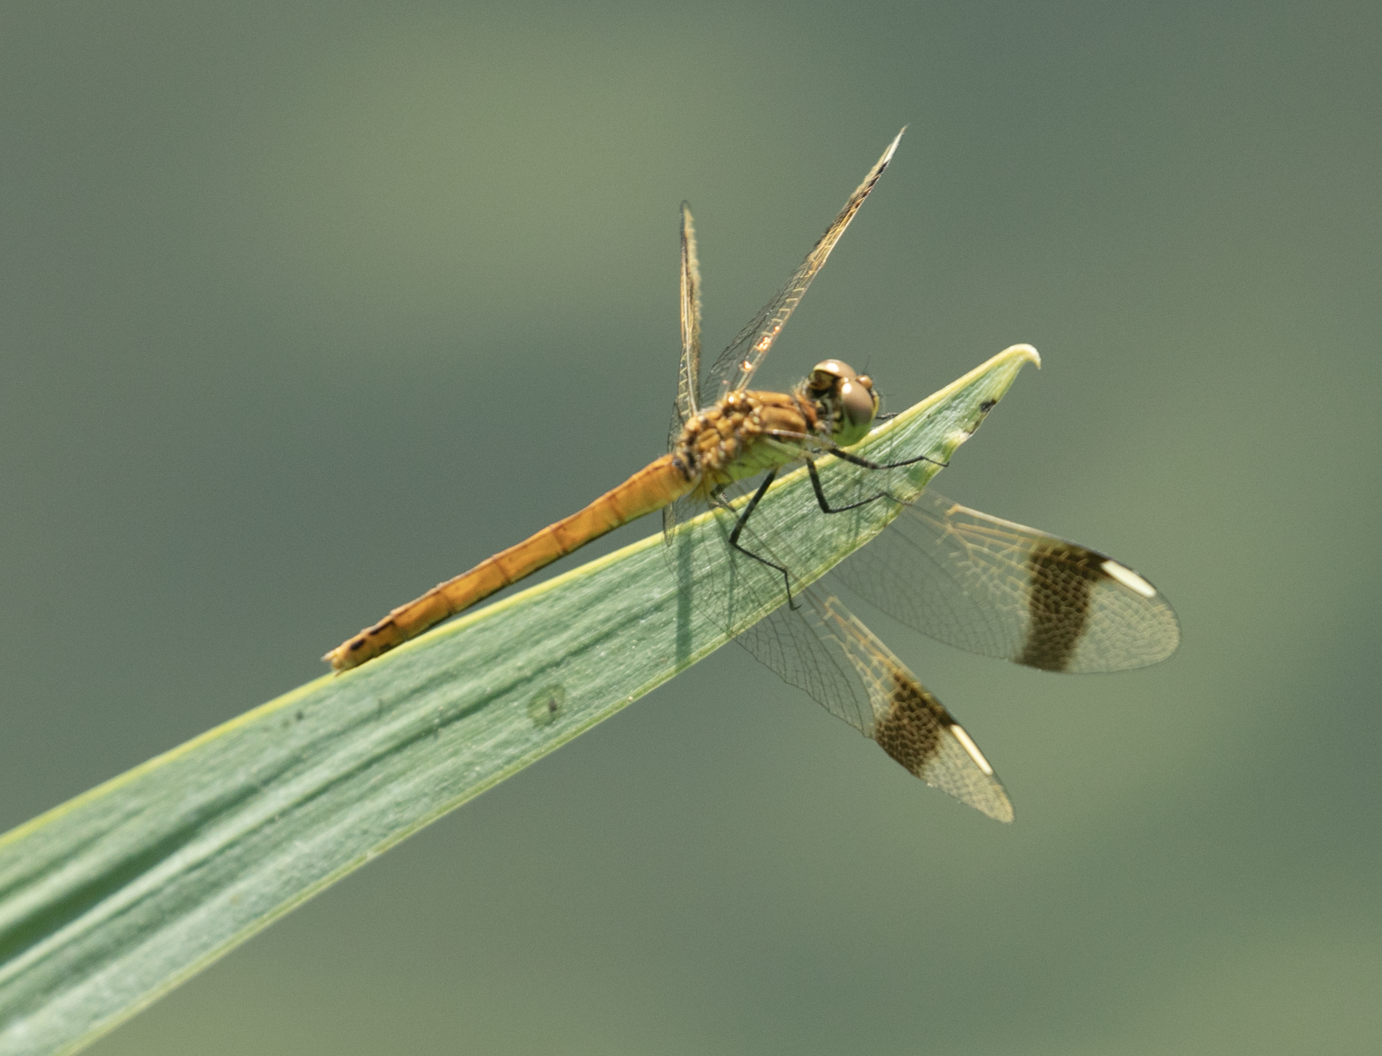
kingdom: Animalia
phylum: Arthropoda
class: Insecta
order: Odonata
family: Libellulidae
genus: Sympetrum
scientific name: Sympetrum pedemontanum
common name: Banded darter
